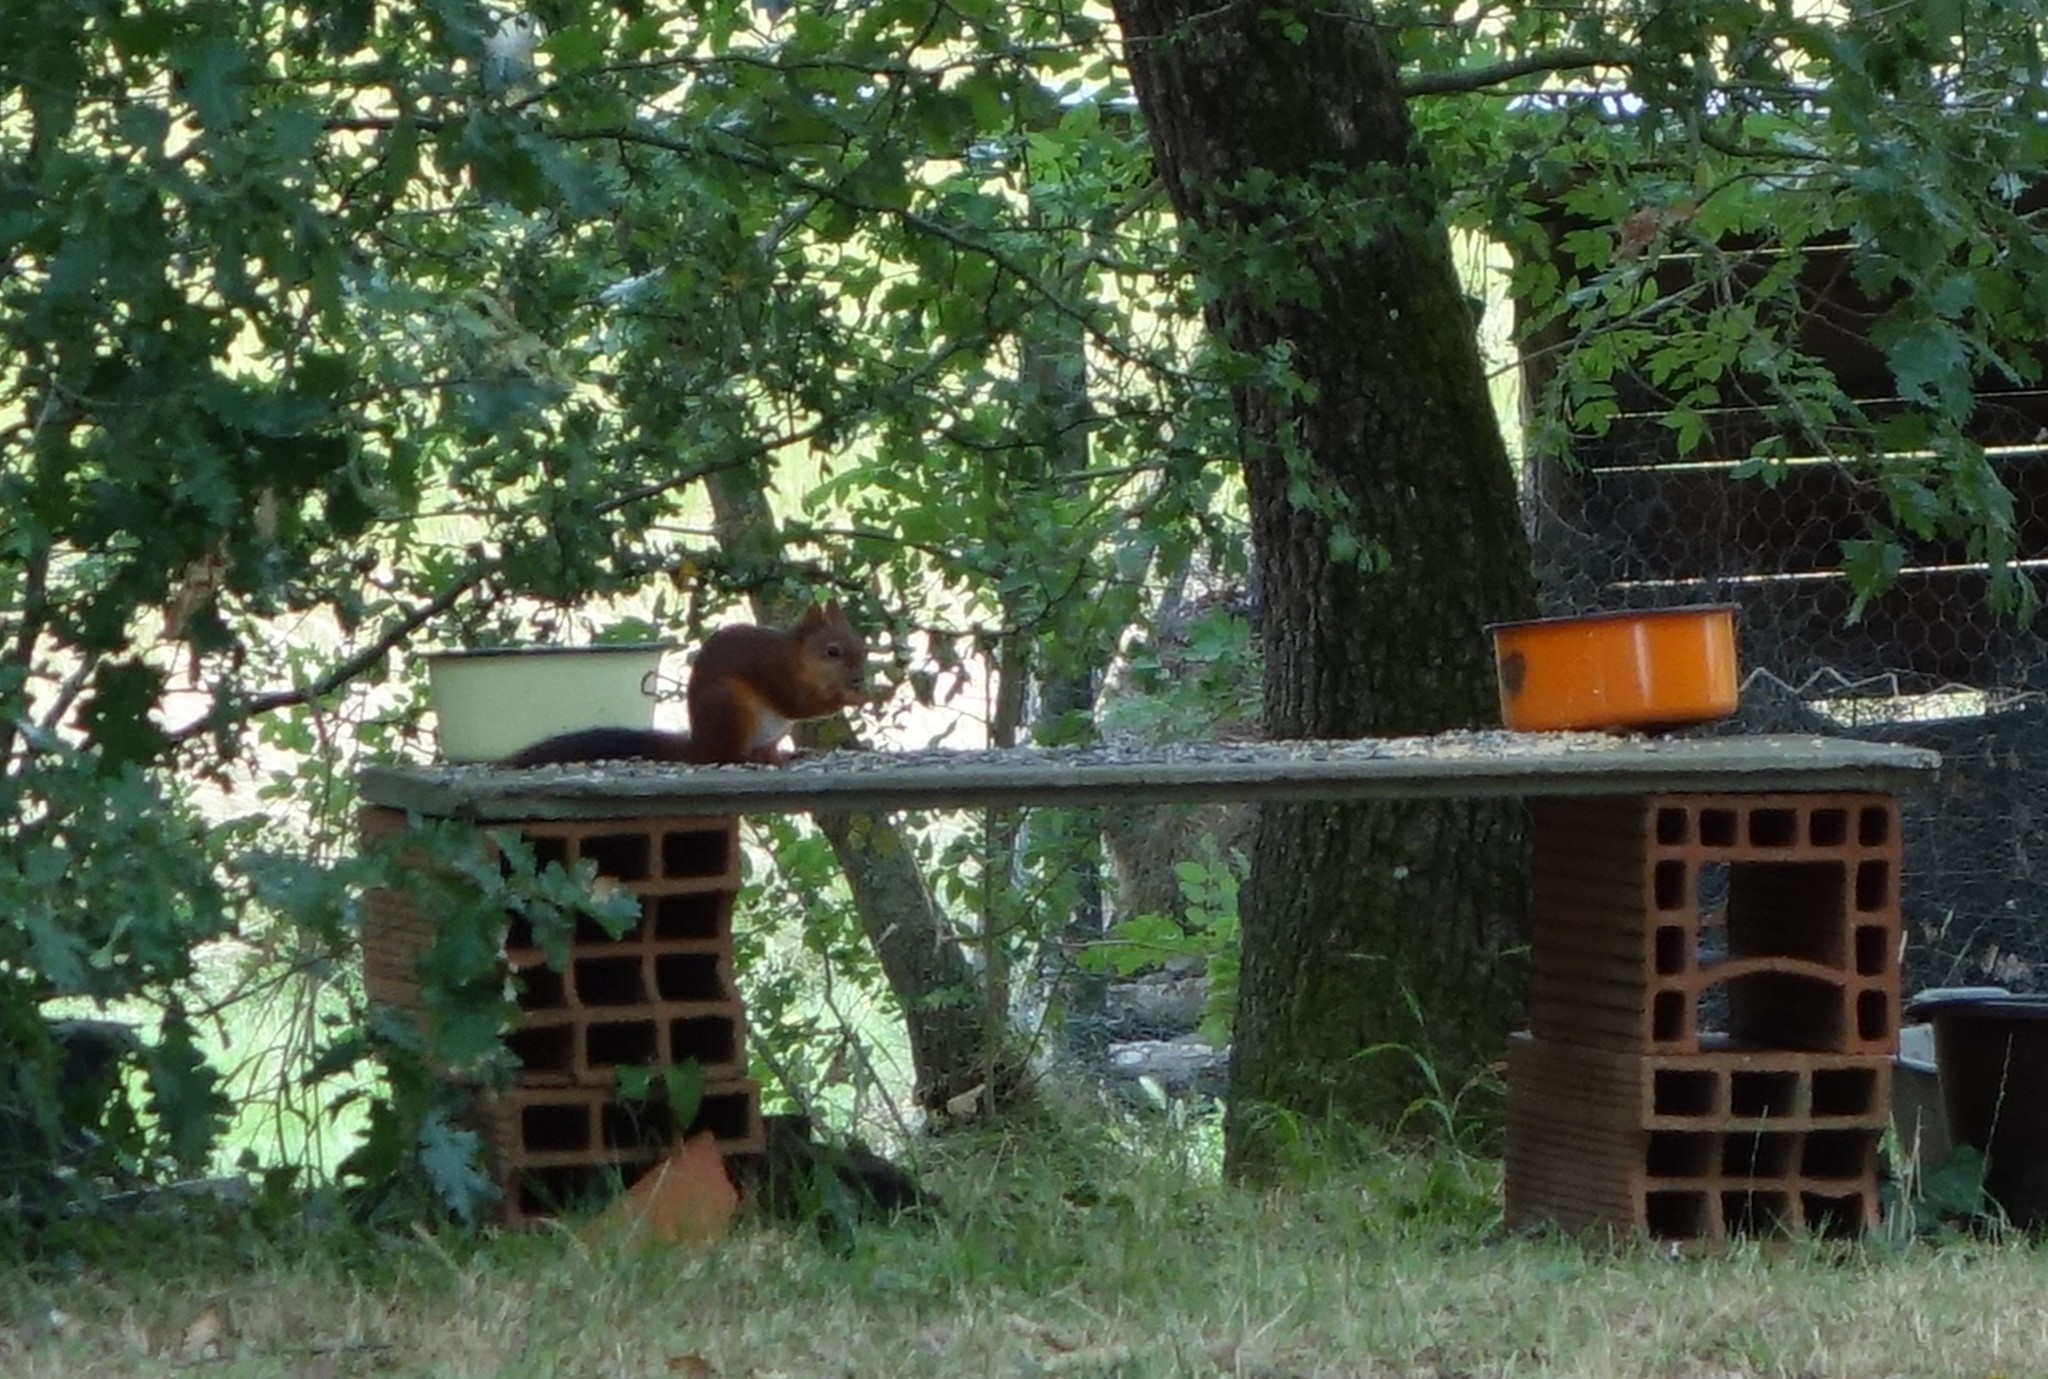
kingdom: Animalia
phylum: Chordata
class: Mammalia
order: Rodentia
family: Sciuridae
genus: Sciurus
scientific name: Sciurus vulgaris
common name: Eurasian red squirrel
